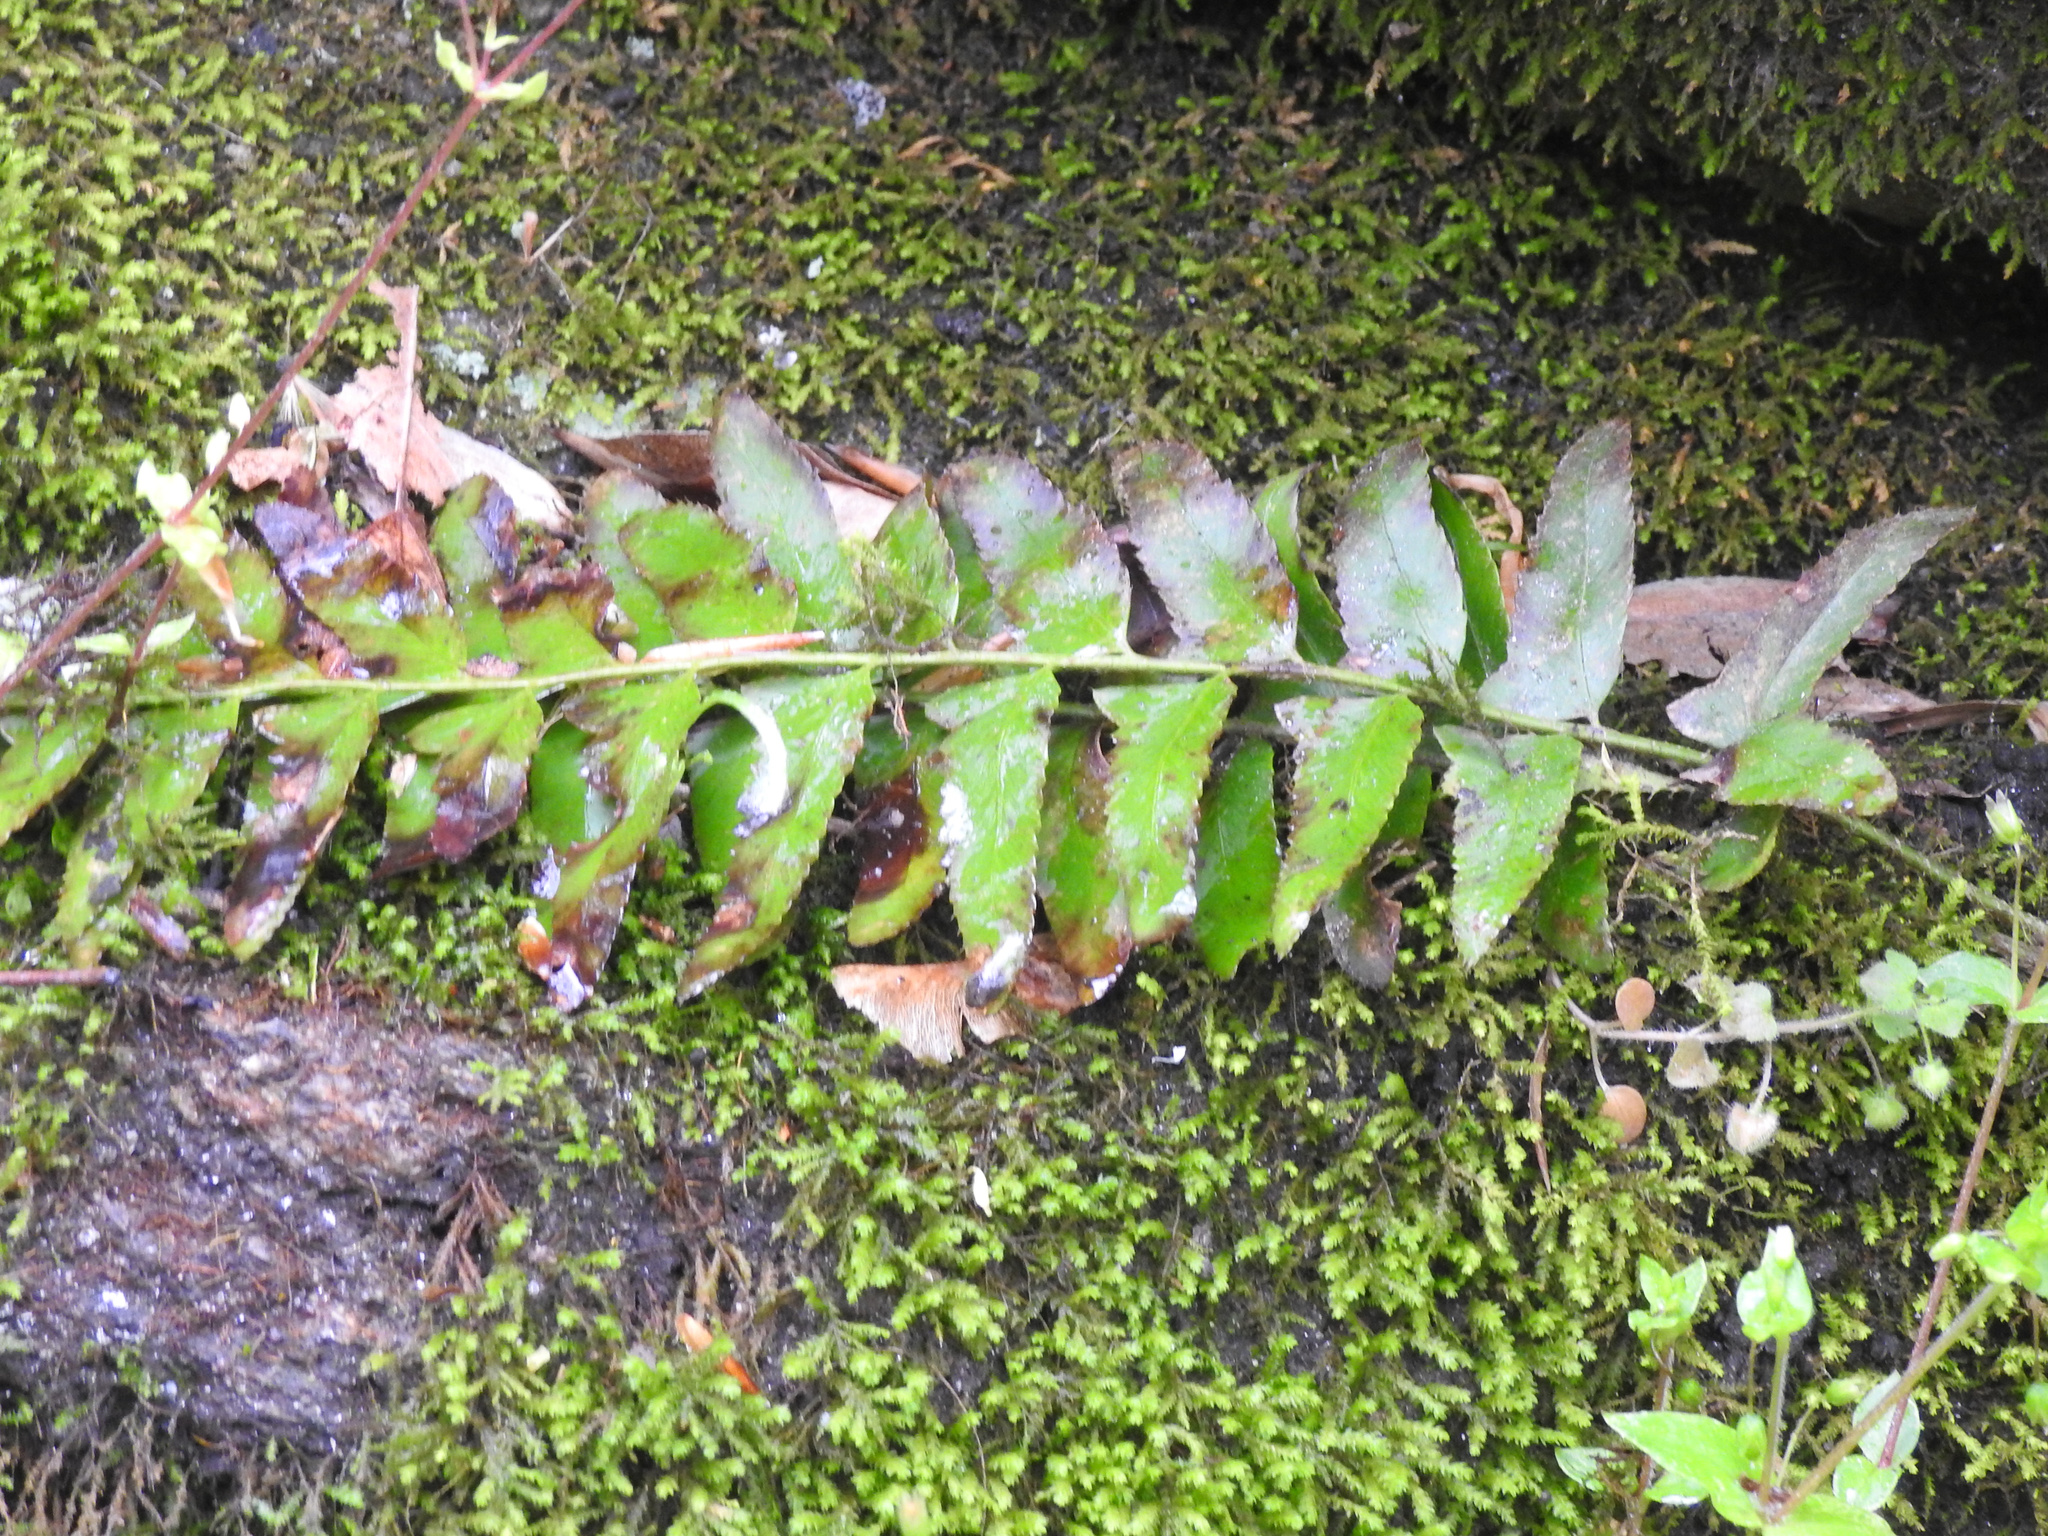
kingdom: Plantae
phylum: Tracheophyta
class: Polypodiopsida
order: Polypodiales
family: Dryopteridaceae
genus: Polystichum
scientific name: Polystichum acrostichoides
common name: Christmas fern
